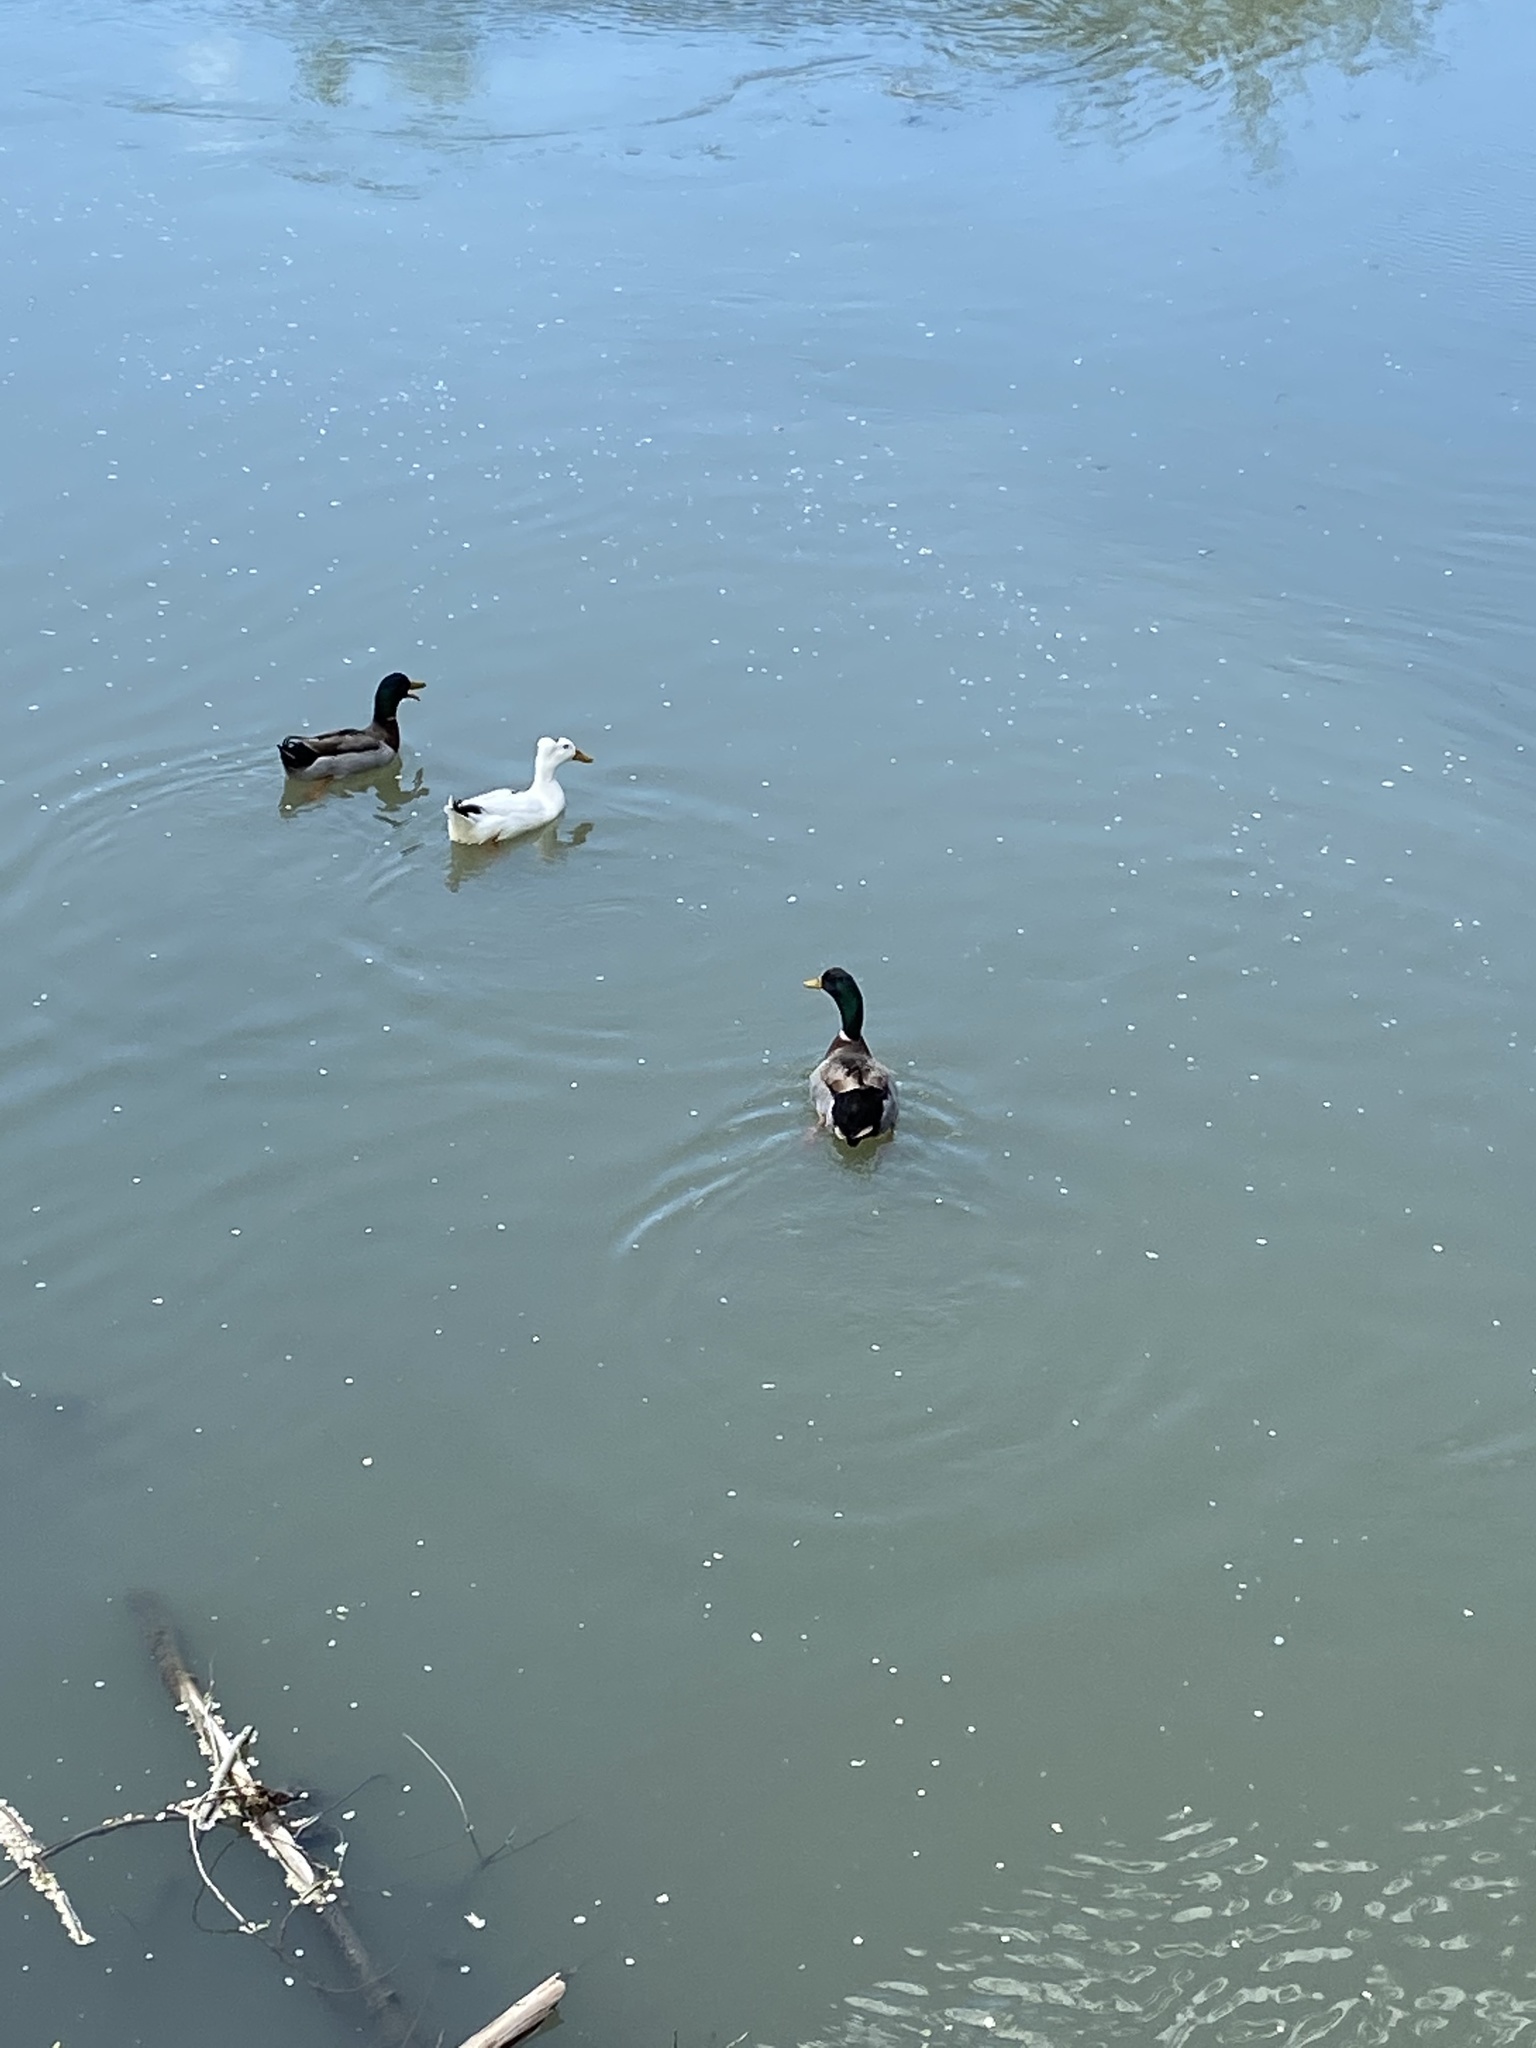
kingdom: Animalia
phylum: Chordata
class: Aves
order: Anseriformes
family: Anatidae
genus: Anas
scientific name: Anas platyrhynchos
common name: Mallard
